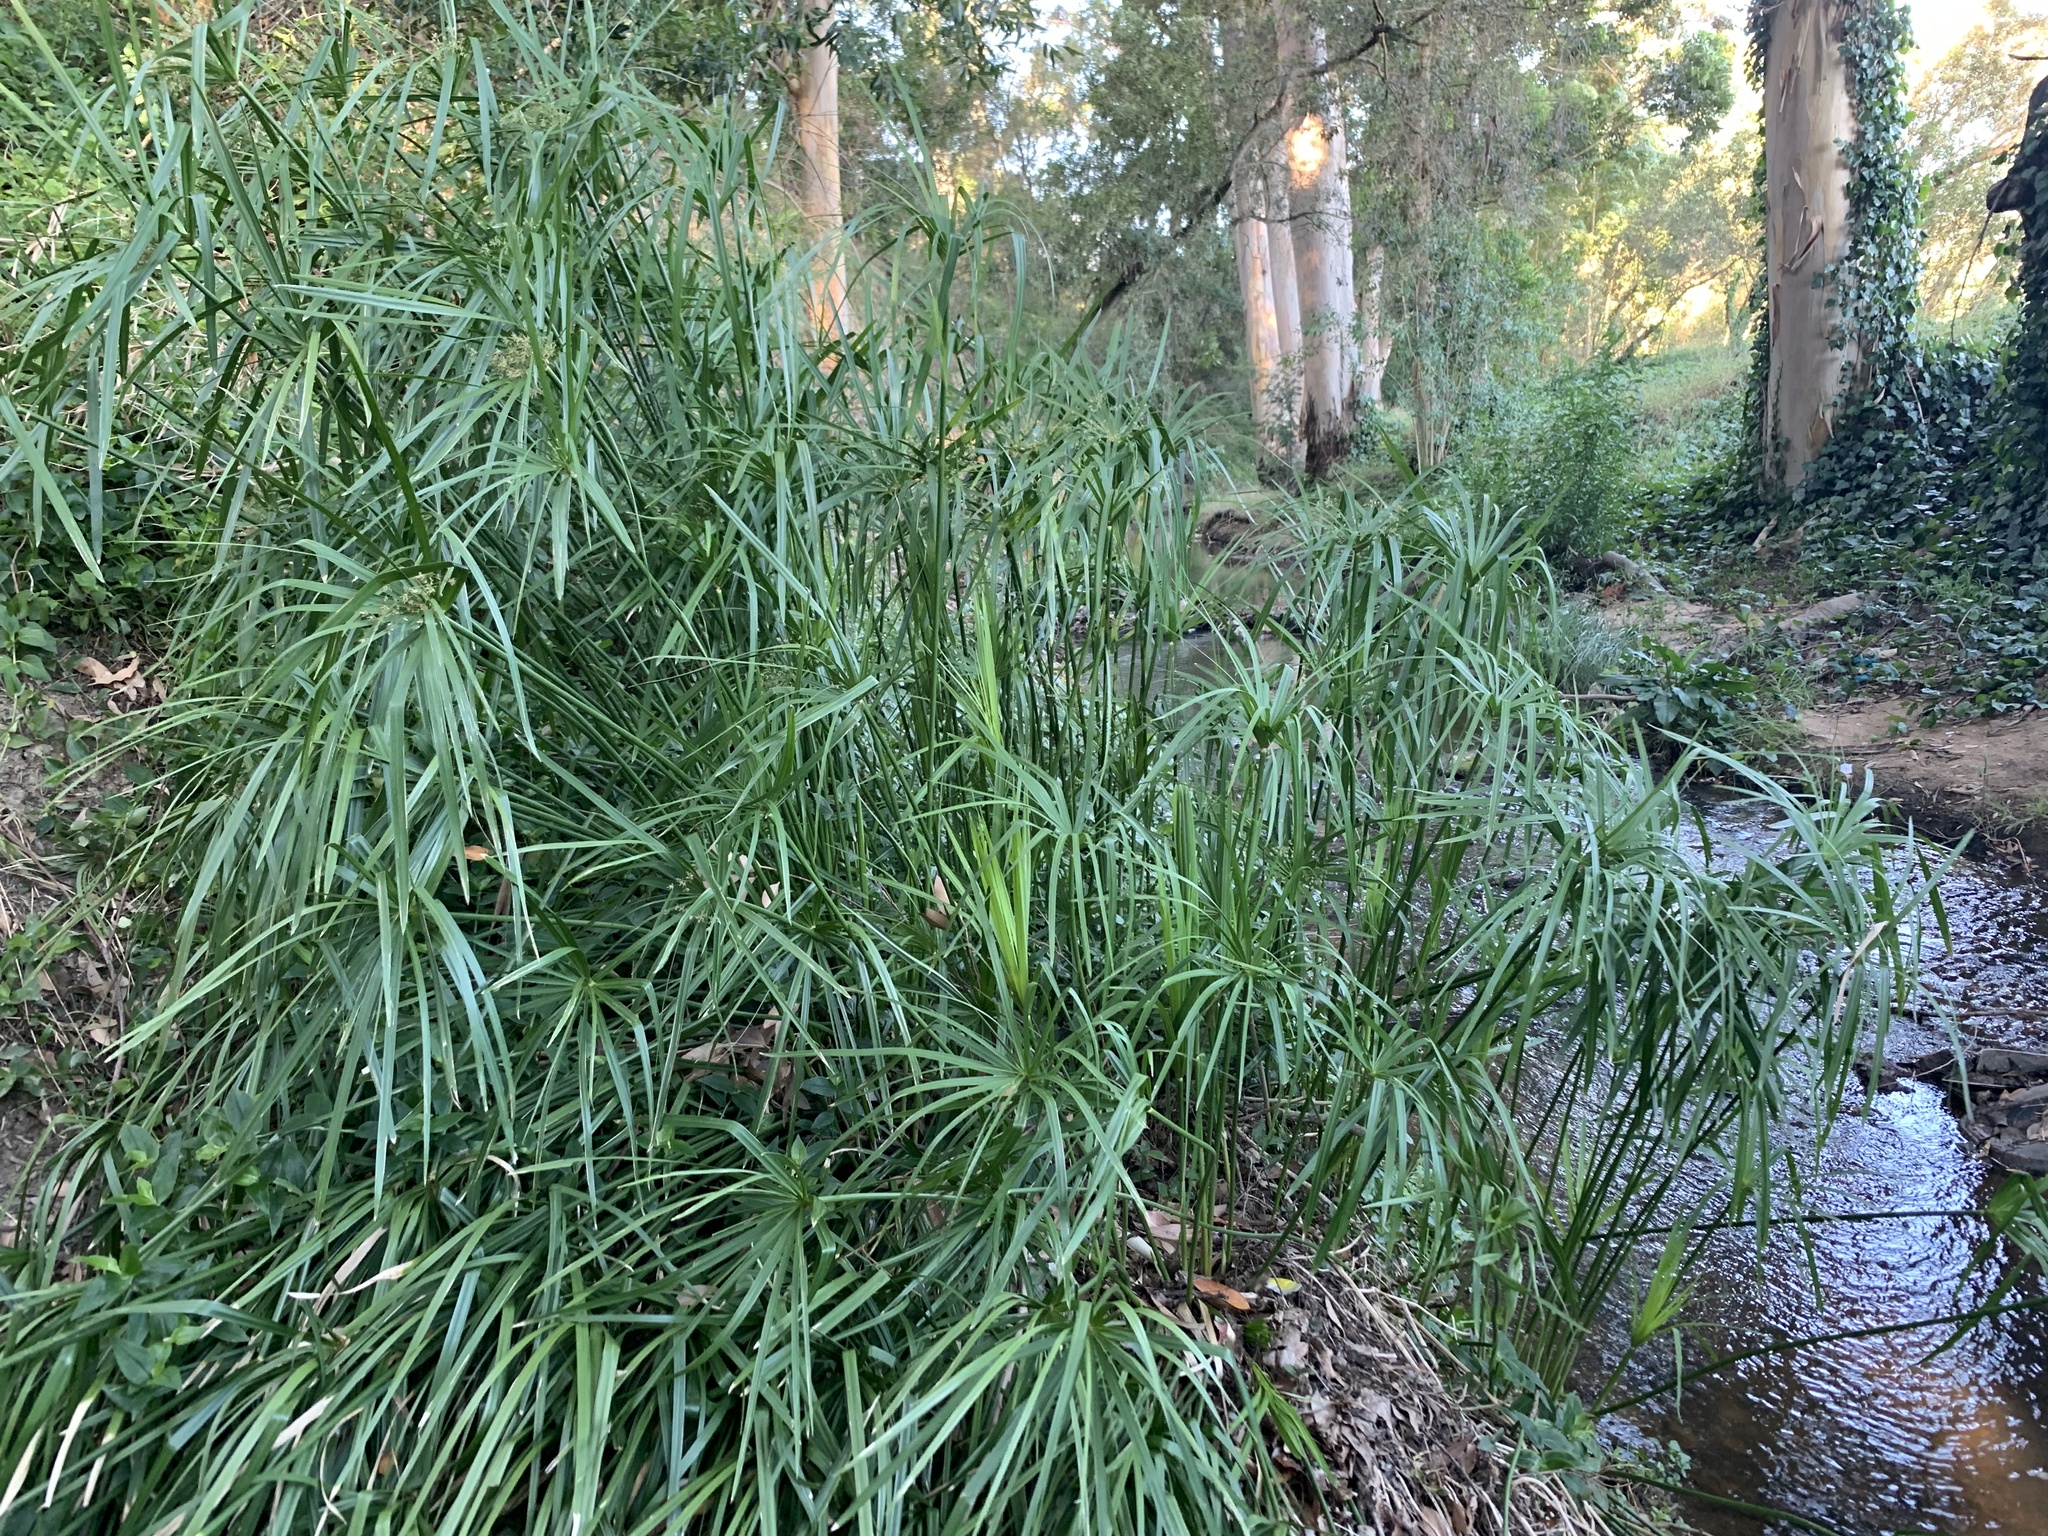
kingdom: Plantae
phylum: Tracheophyta
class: Liliopsida
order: Poales
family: Cyperaceae
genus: Cyperus
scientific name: Cyperus textilis
